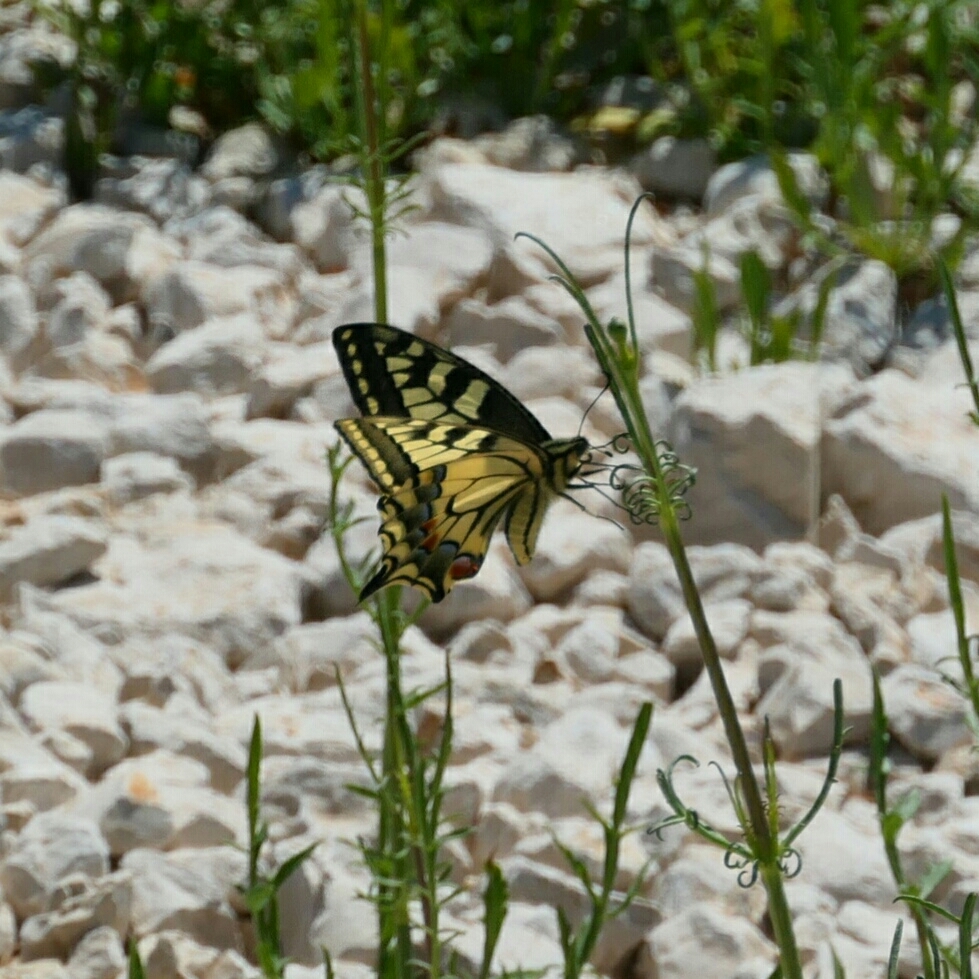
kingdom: Animalia
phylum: Arthropoda
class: Insecta
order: Lepidoptera
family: Papilionidae
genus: Papilio
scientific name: Papilio machaon
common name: Swallowtail
